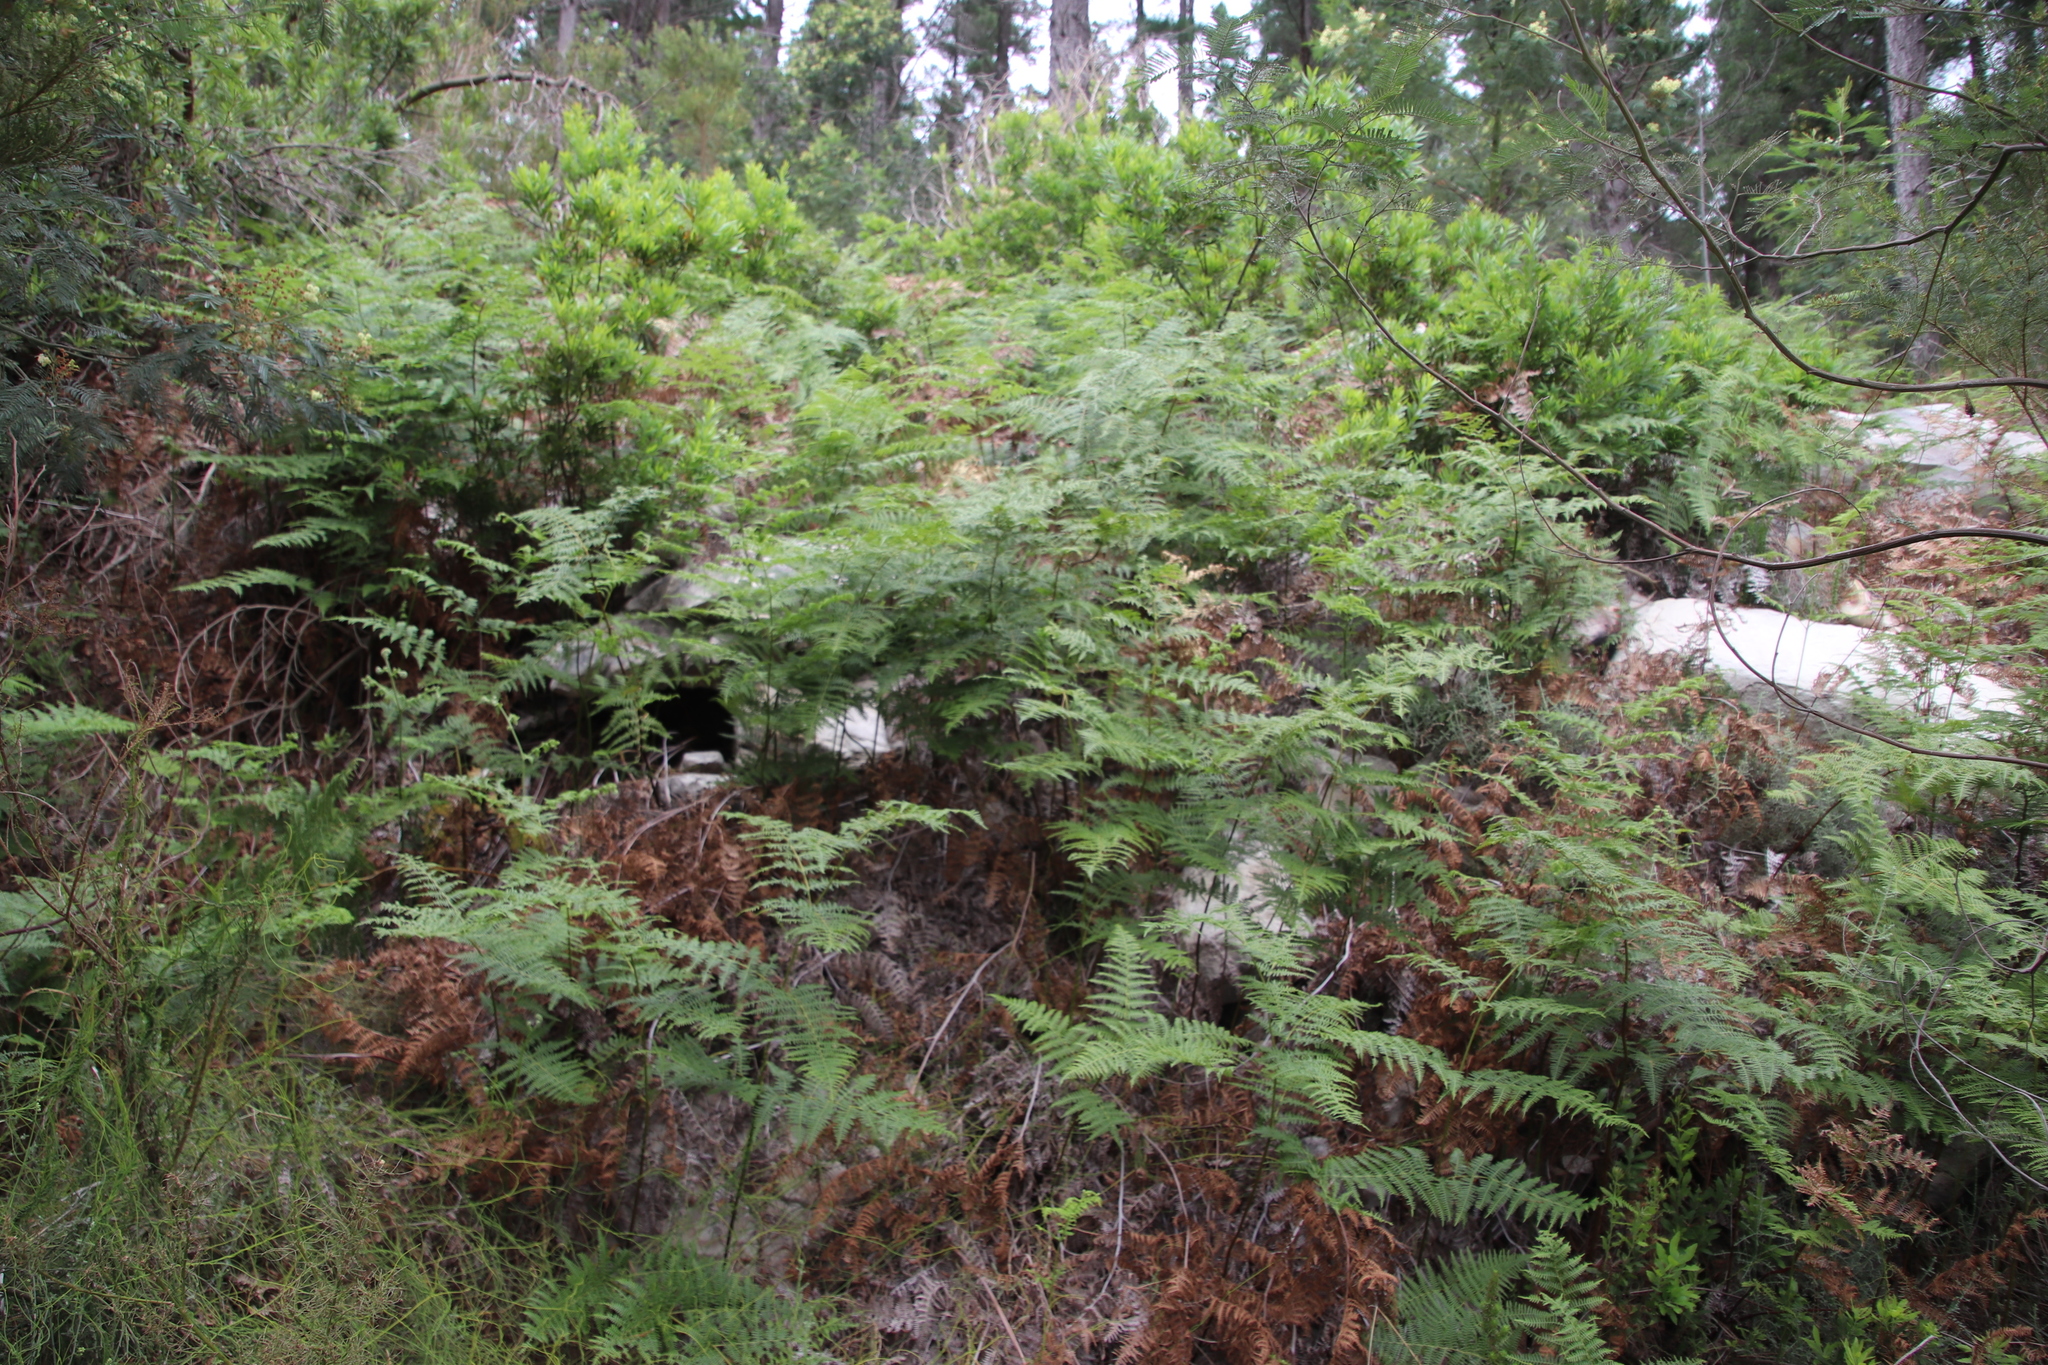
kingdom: Plantae
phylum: Tracheophyta
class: Polypodiopsida
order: Polypodiales
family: Dennstaedtiaceae
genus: Pteridium
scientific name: Pteridium aquilinum
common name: Bracken
